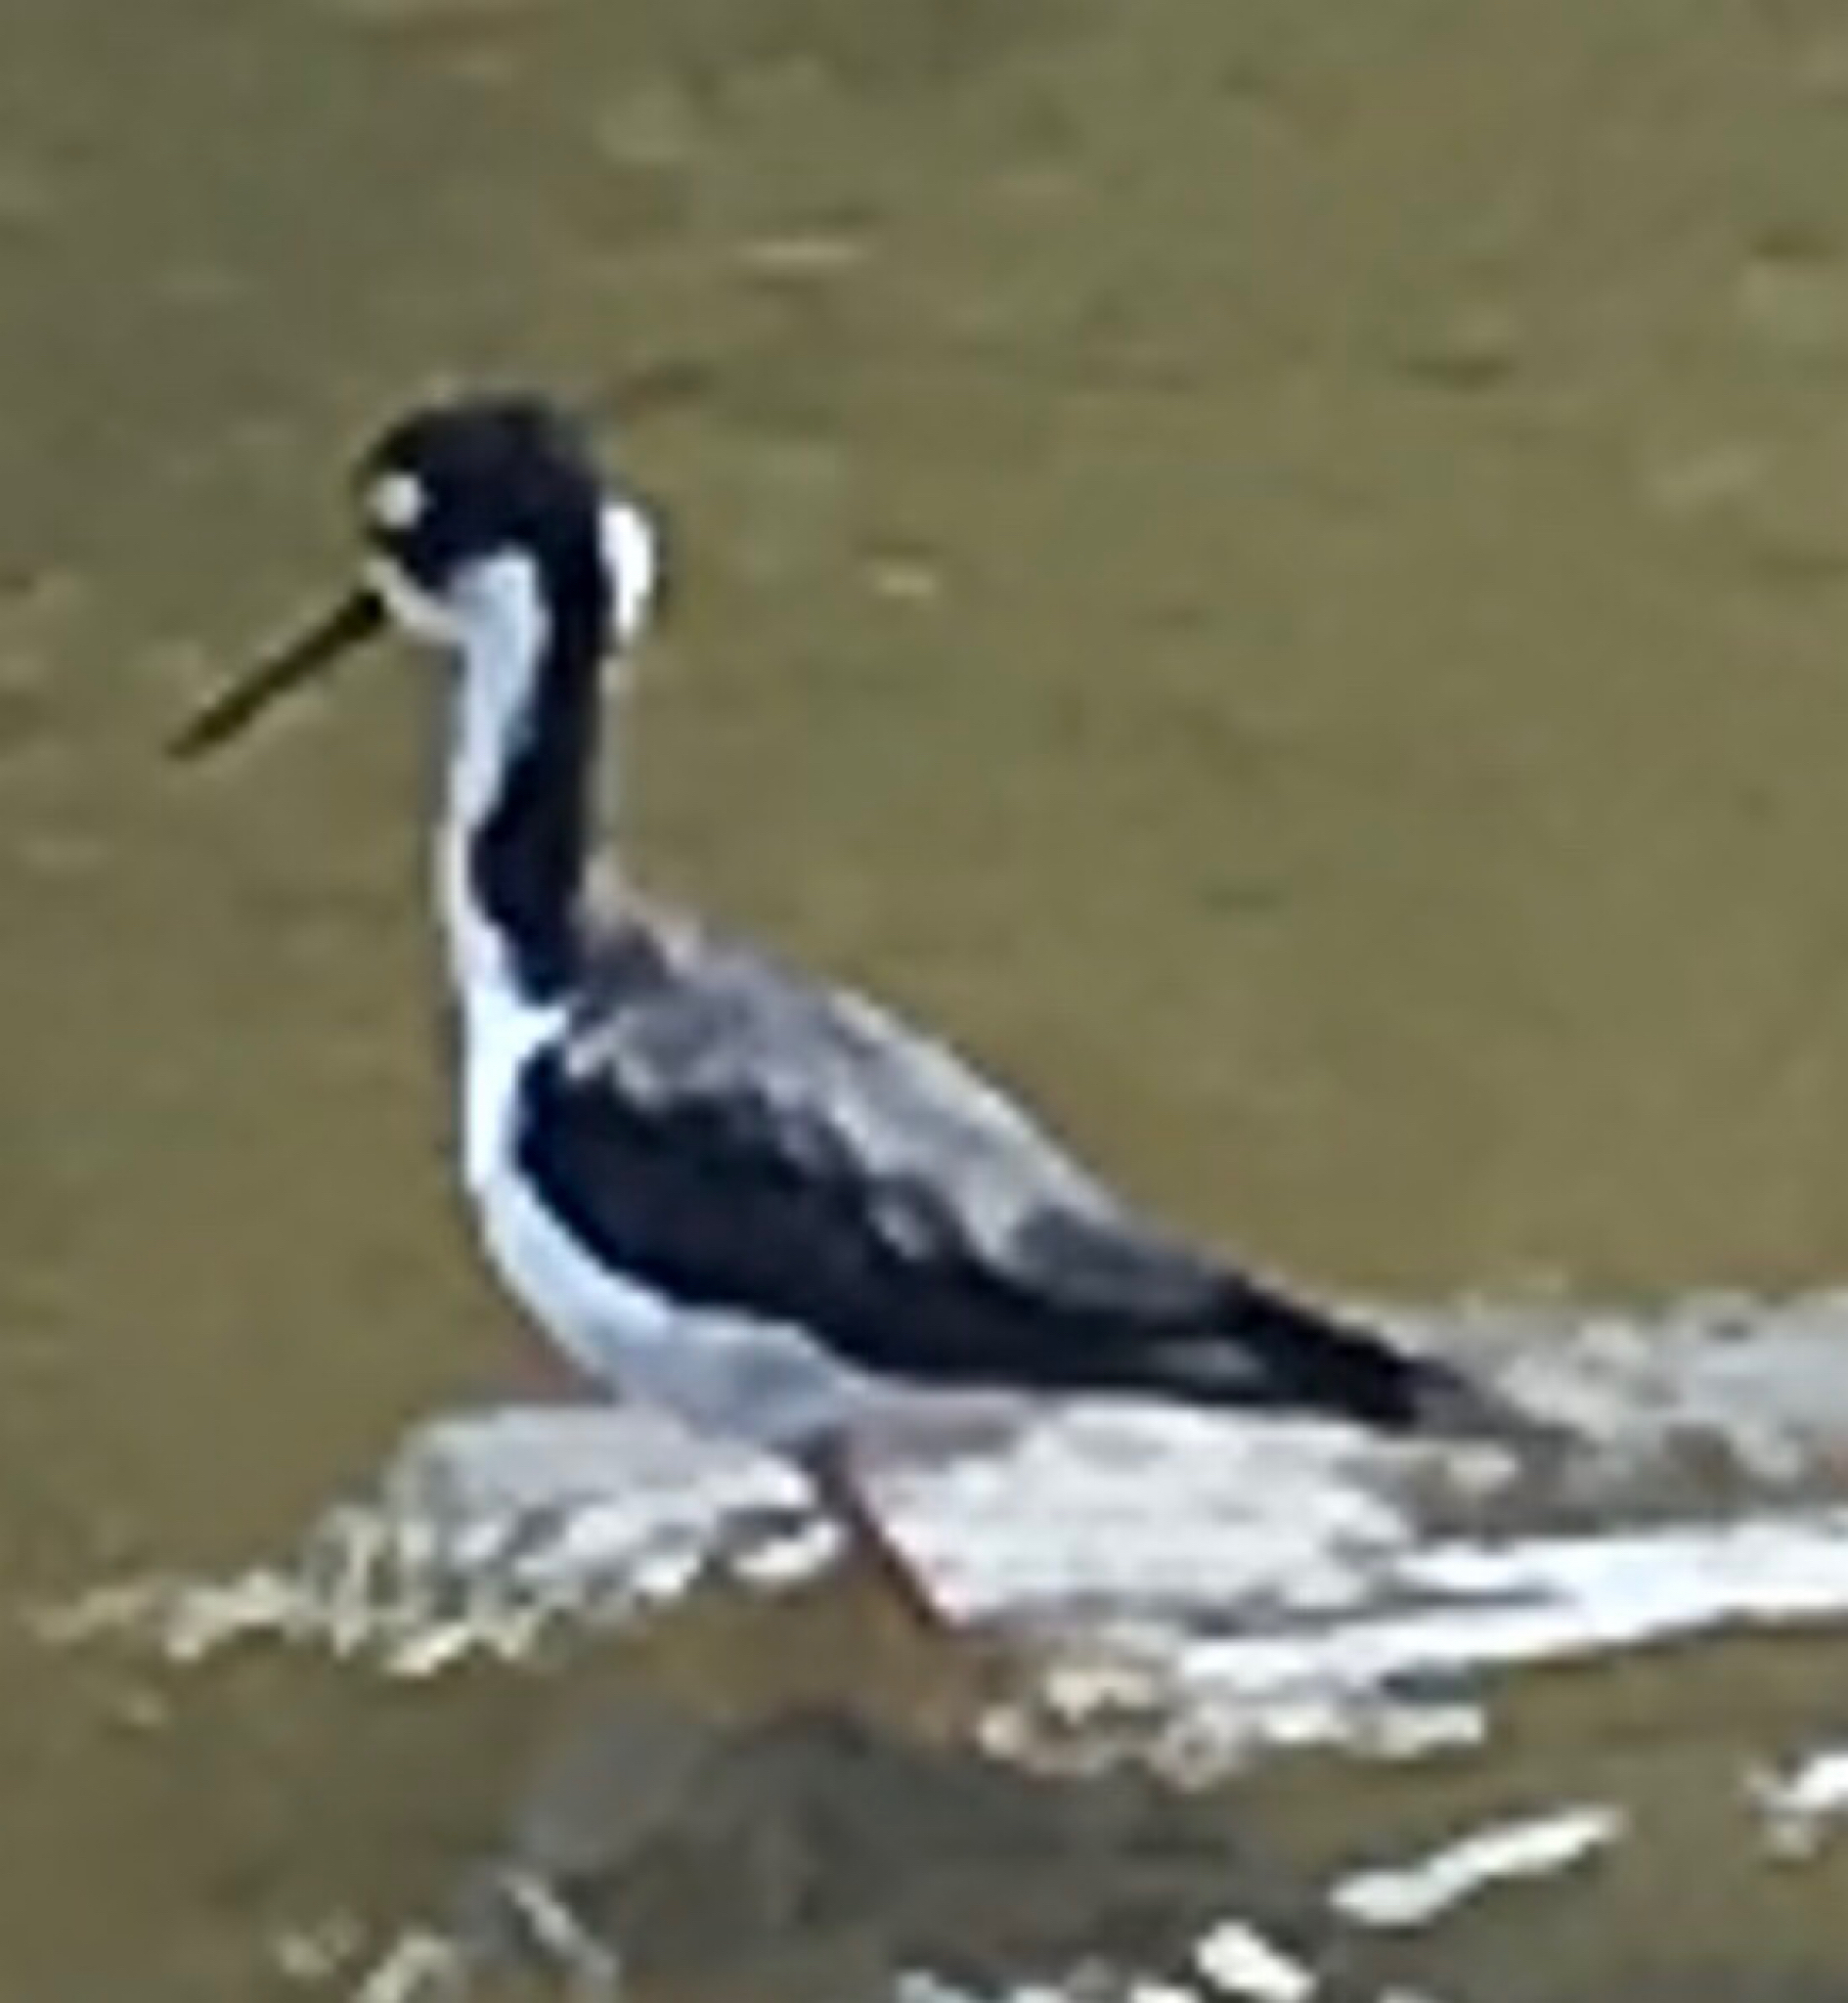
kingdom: Animalia
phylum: Chordata
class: Aves
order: Charadriiformes
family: Recurvirostridae
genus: Himantopus
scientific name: Himantopus mexicanus
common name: Black-necked stilt
